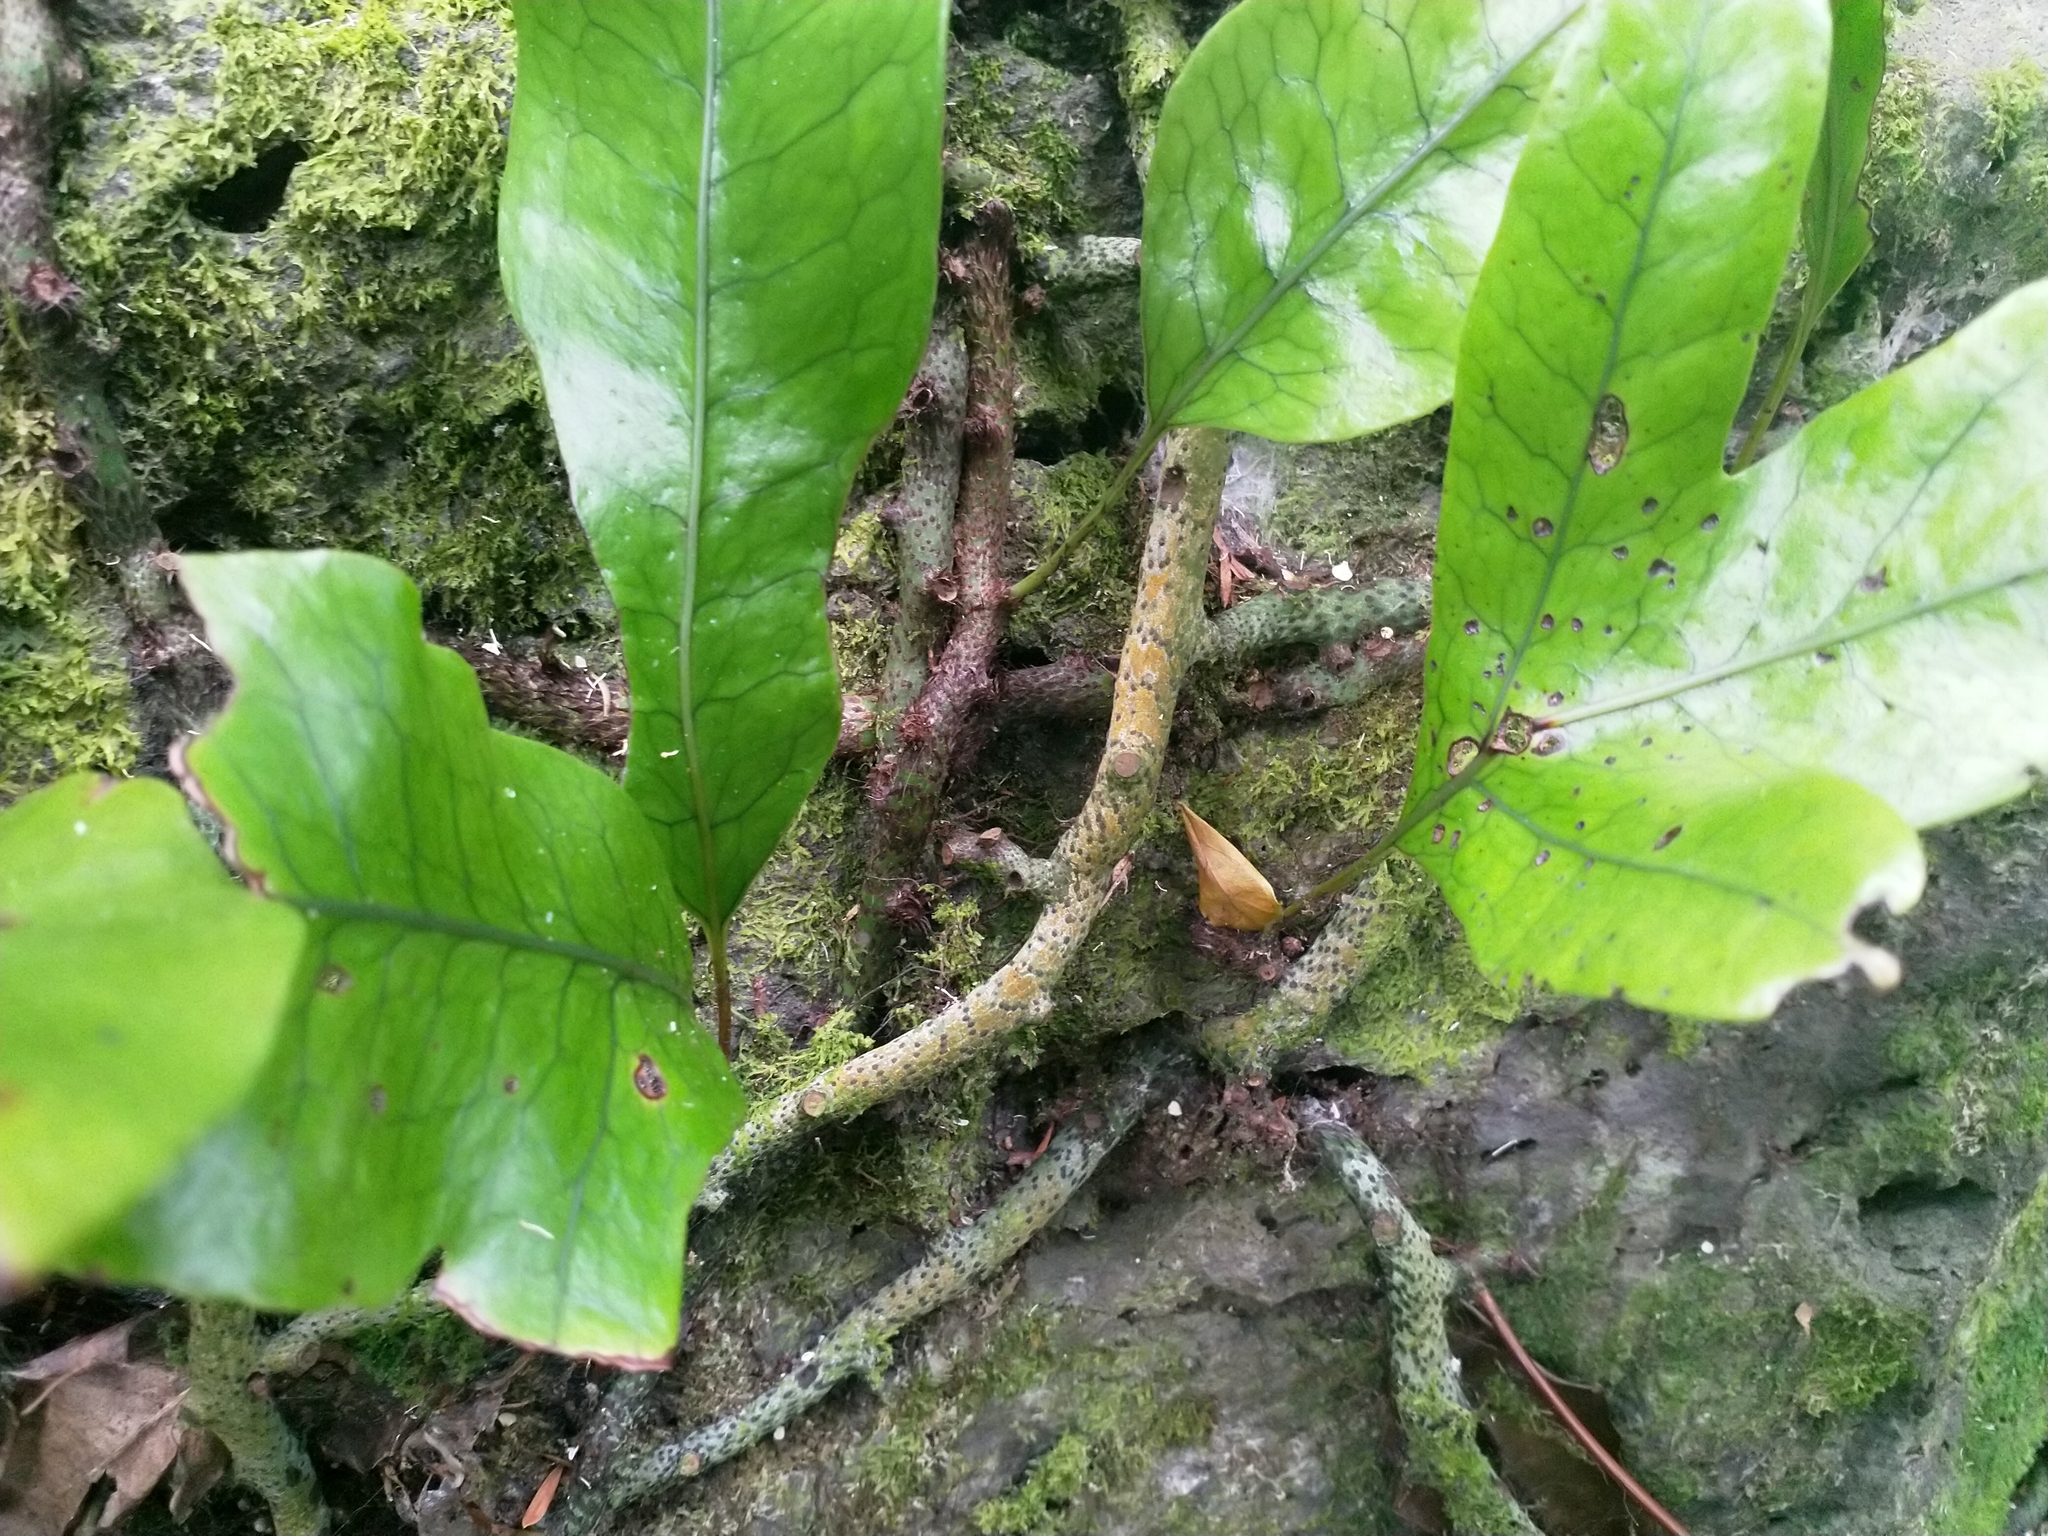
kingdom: Plantae
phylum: Tracheophyta
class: Polypodiopsida
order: Polypodiales
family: Polypodiaceae
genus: Lecanopteris
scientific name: Lecanopteris pustulata
